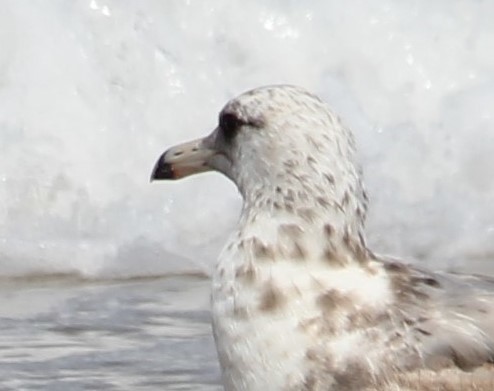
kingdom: Animalia
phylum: Chordata
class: Aves
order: Charadriiformes
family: Laridae
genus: Larus
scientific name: Larus californicus
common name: California gull
